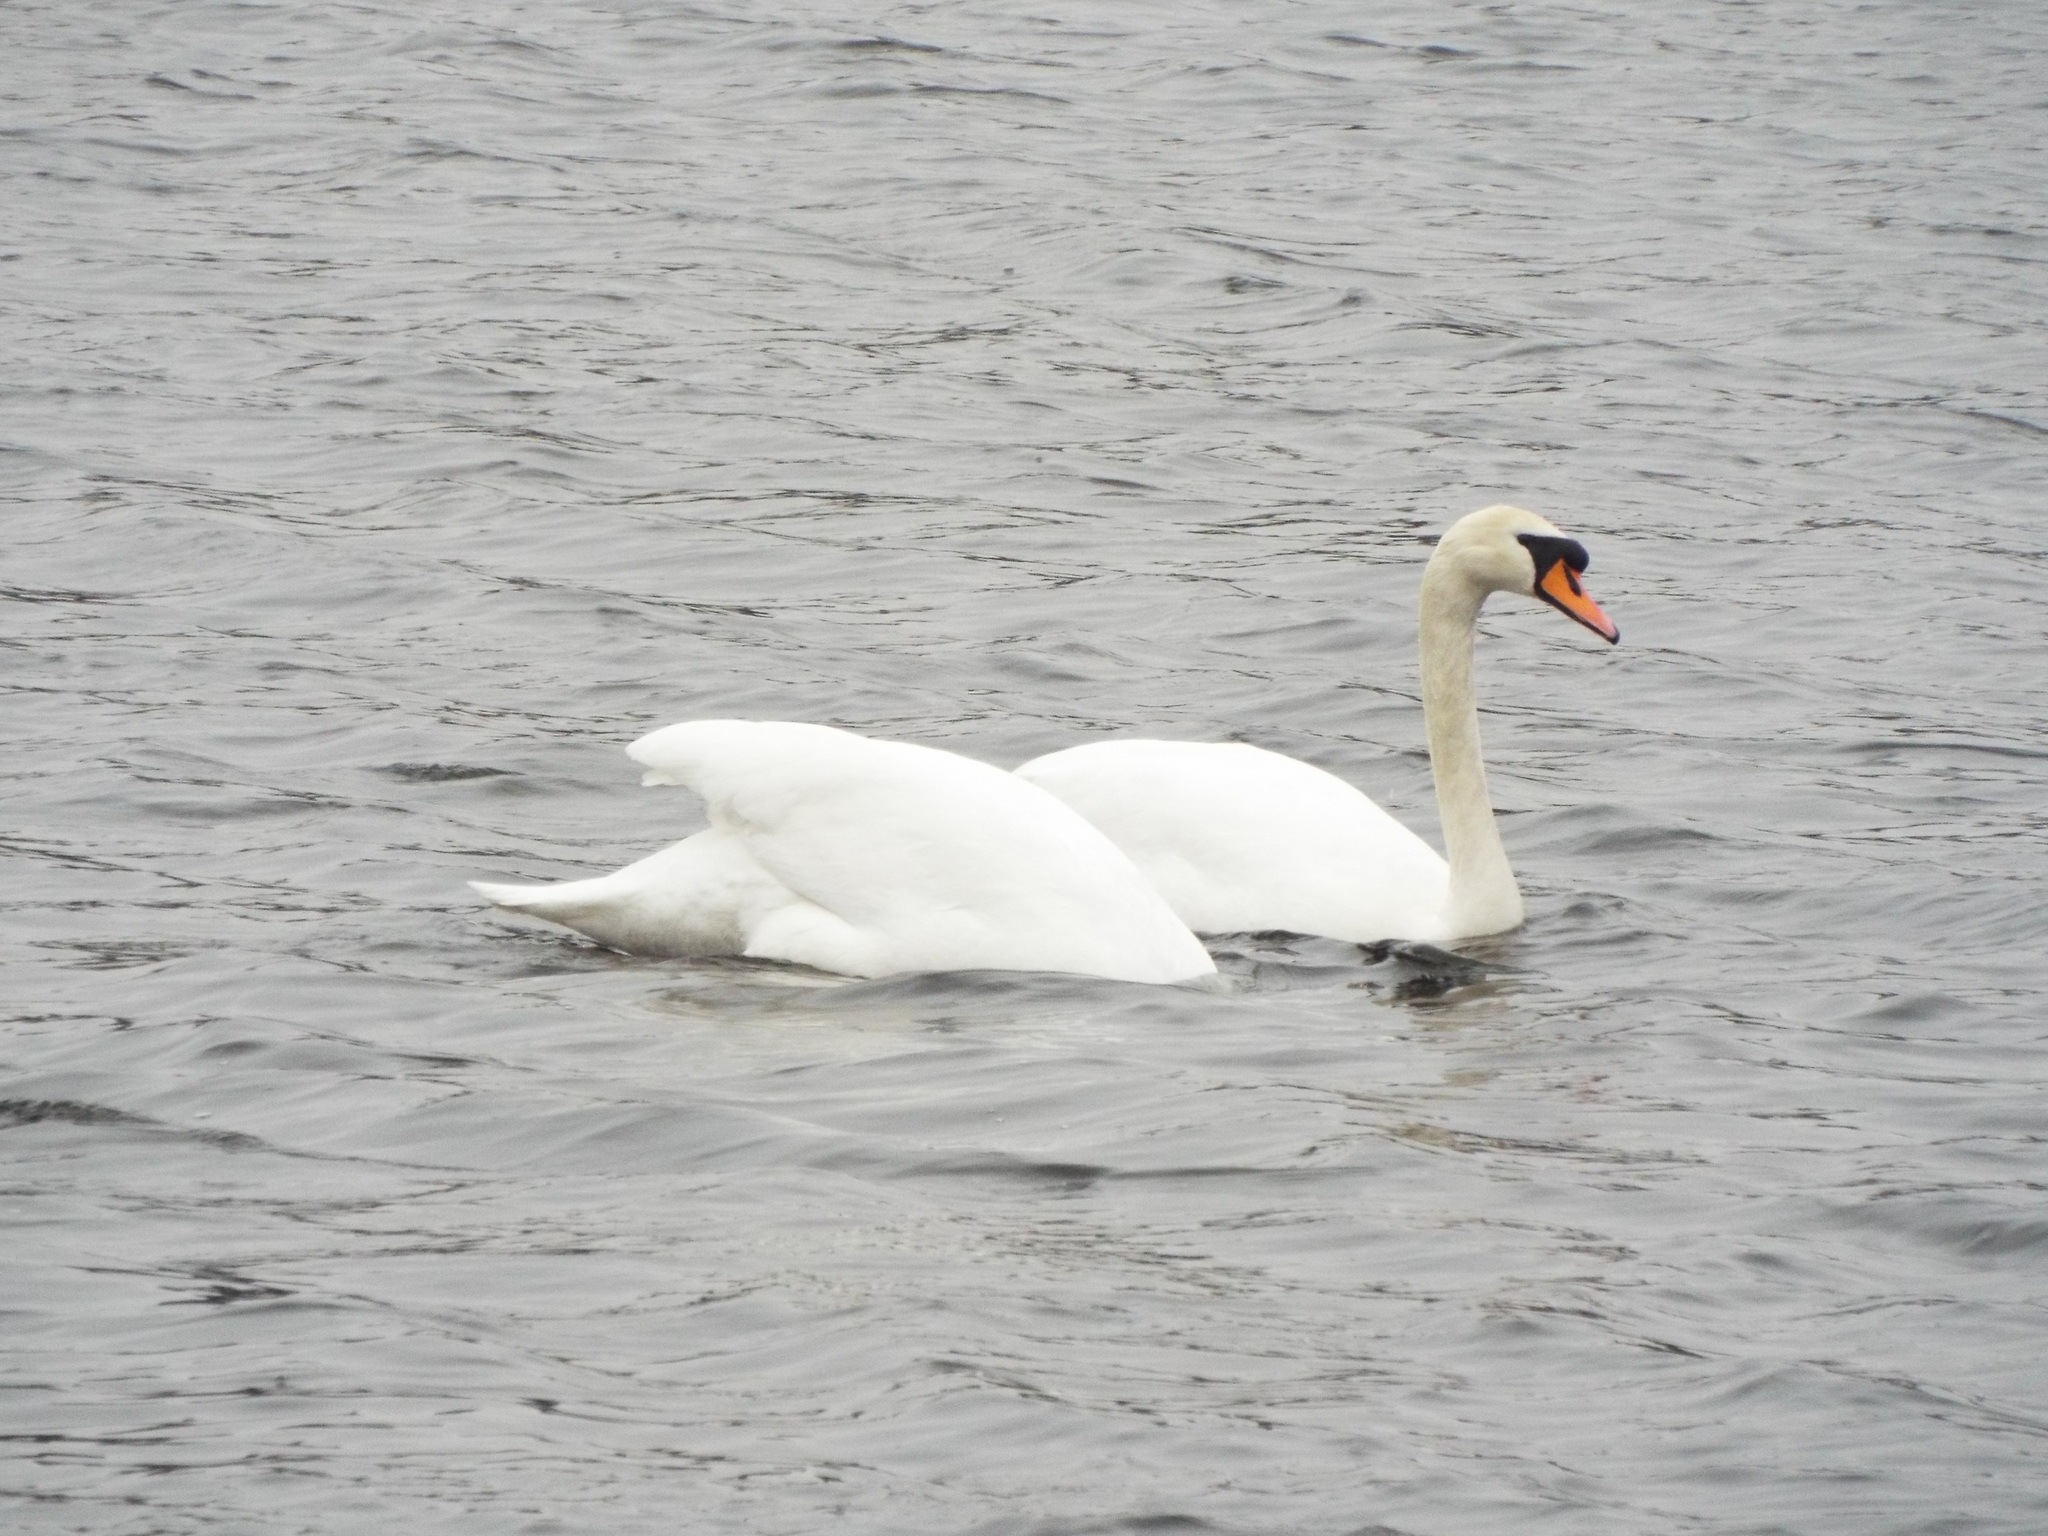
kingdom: Animalia
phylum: Chordata
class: Aves
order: Anseriformes
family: Anatidae
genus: Cygnus
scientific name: Cygnus olor
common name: Mute swan
